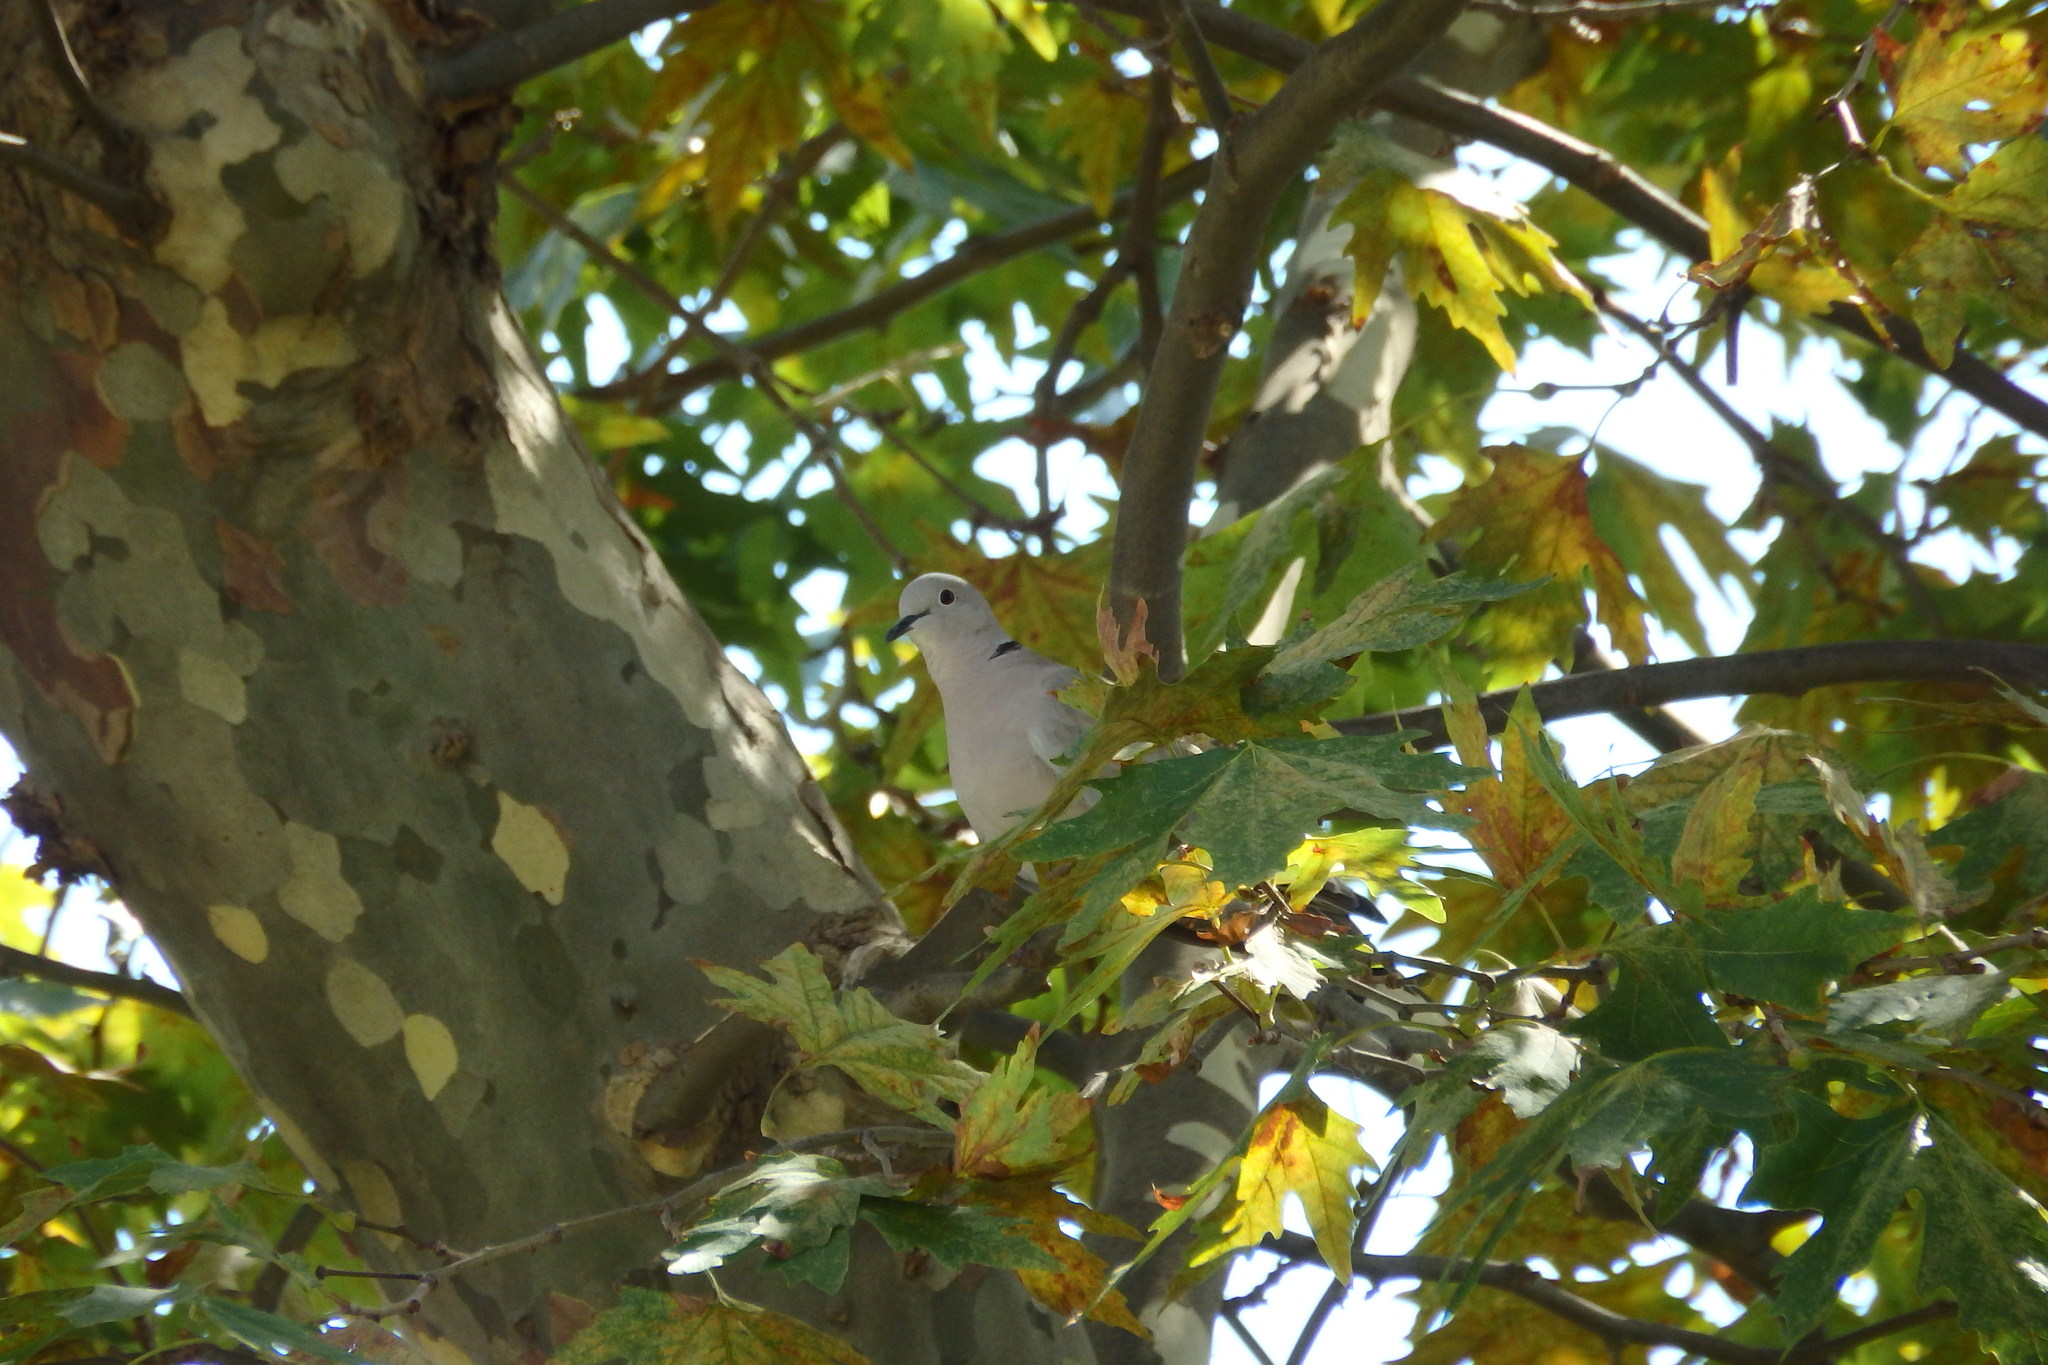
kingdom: Animalia
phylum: Chordata
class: Aves
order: Columbiformes
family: Columbidae
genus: Streptopelia
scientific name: Streptopelia decaocto
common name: Eurasian collared dove
